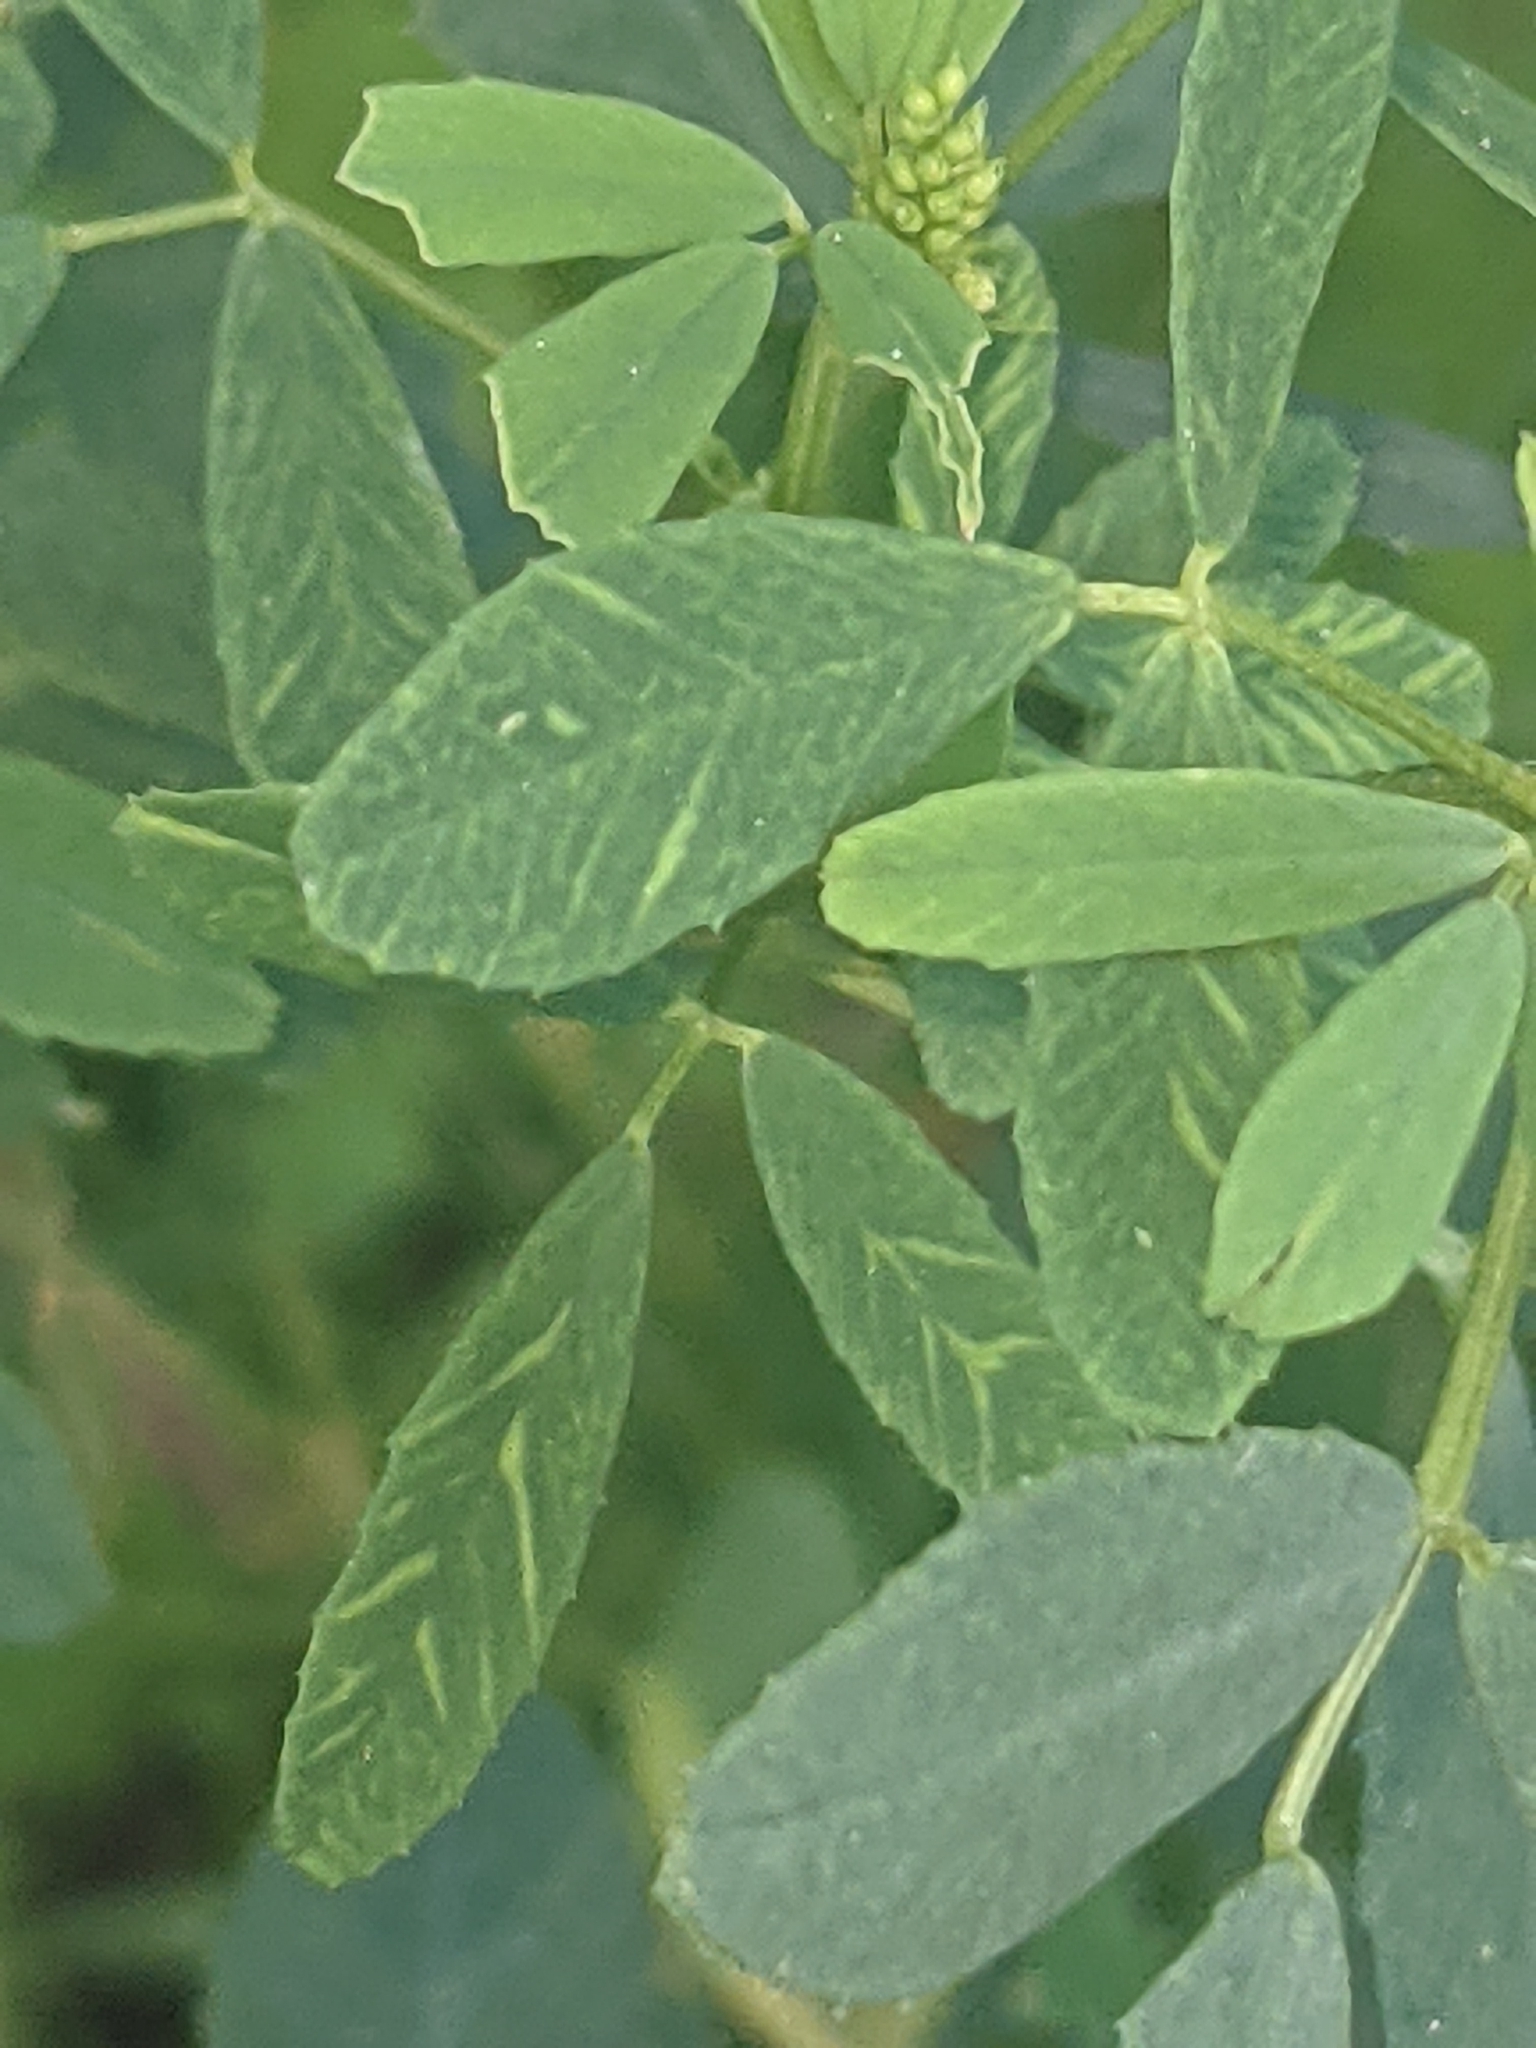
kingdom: Plantae
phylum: Tracheophyta
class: Magnoliopsida
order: Fabales
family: Fabaceae
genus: Melilotus
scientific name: Melilotus albus
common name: White melilot
